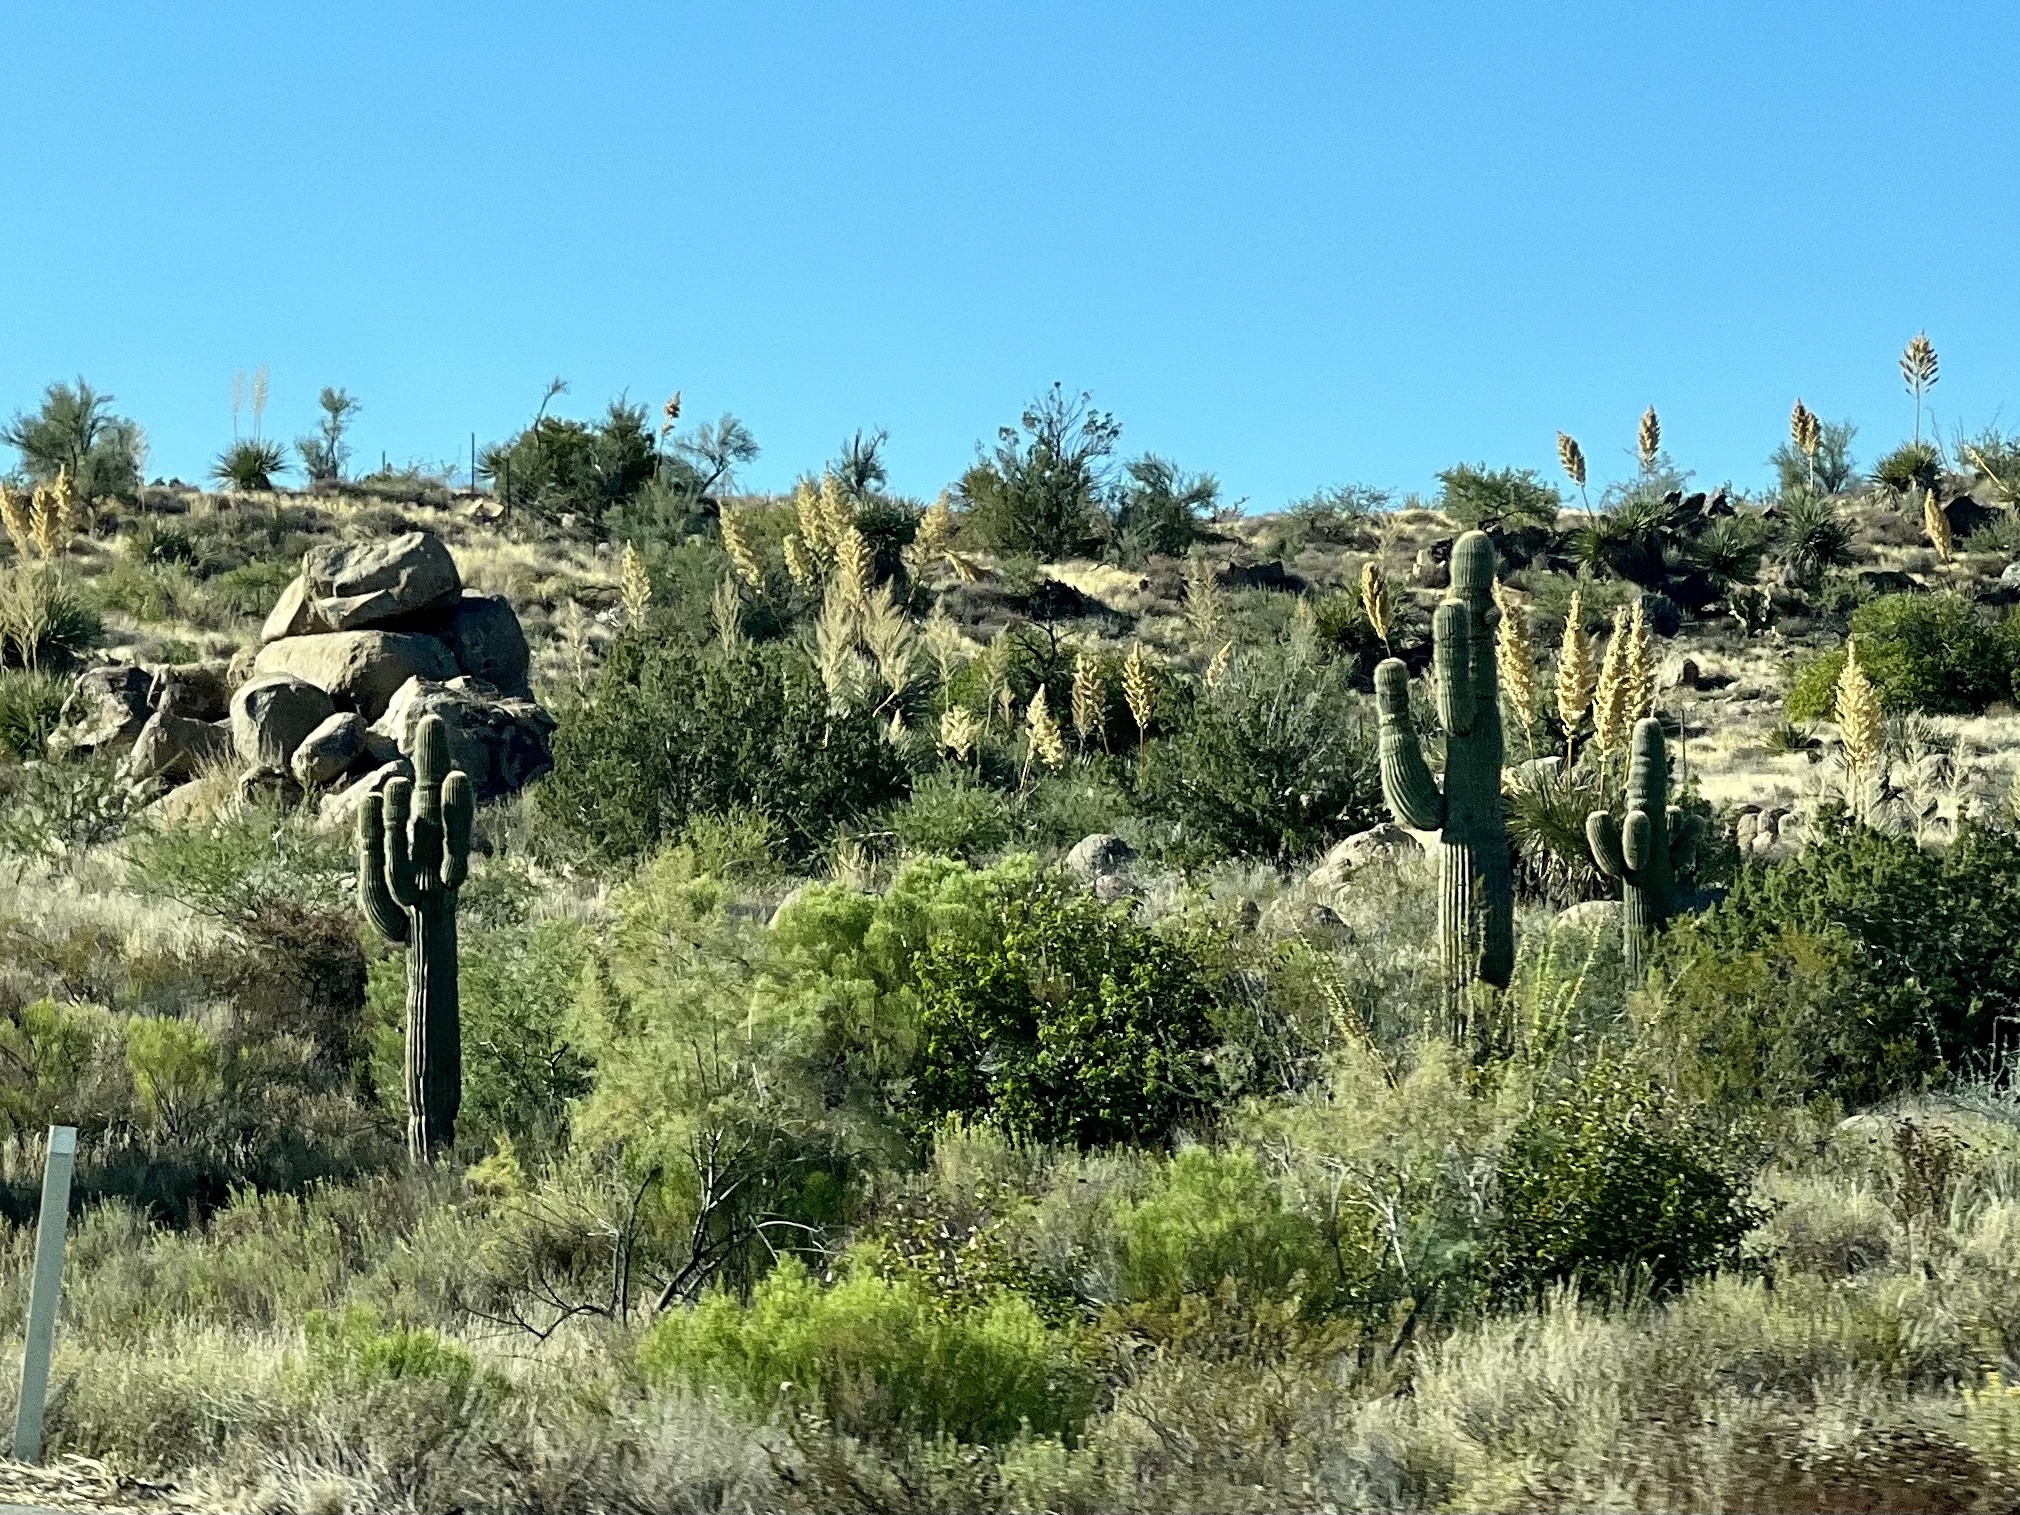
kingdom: Plantae
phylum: Tracheophyta
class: Magnoliopsida
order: Caryophyllales
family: Cactaceae
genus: Carnegiea
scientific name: Carnegiea gigantea
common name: Saguaro
